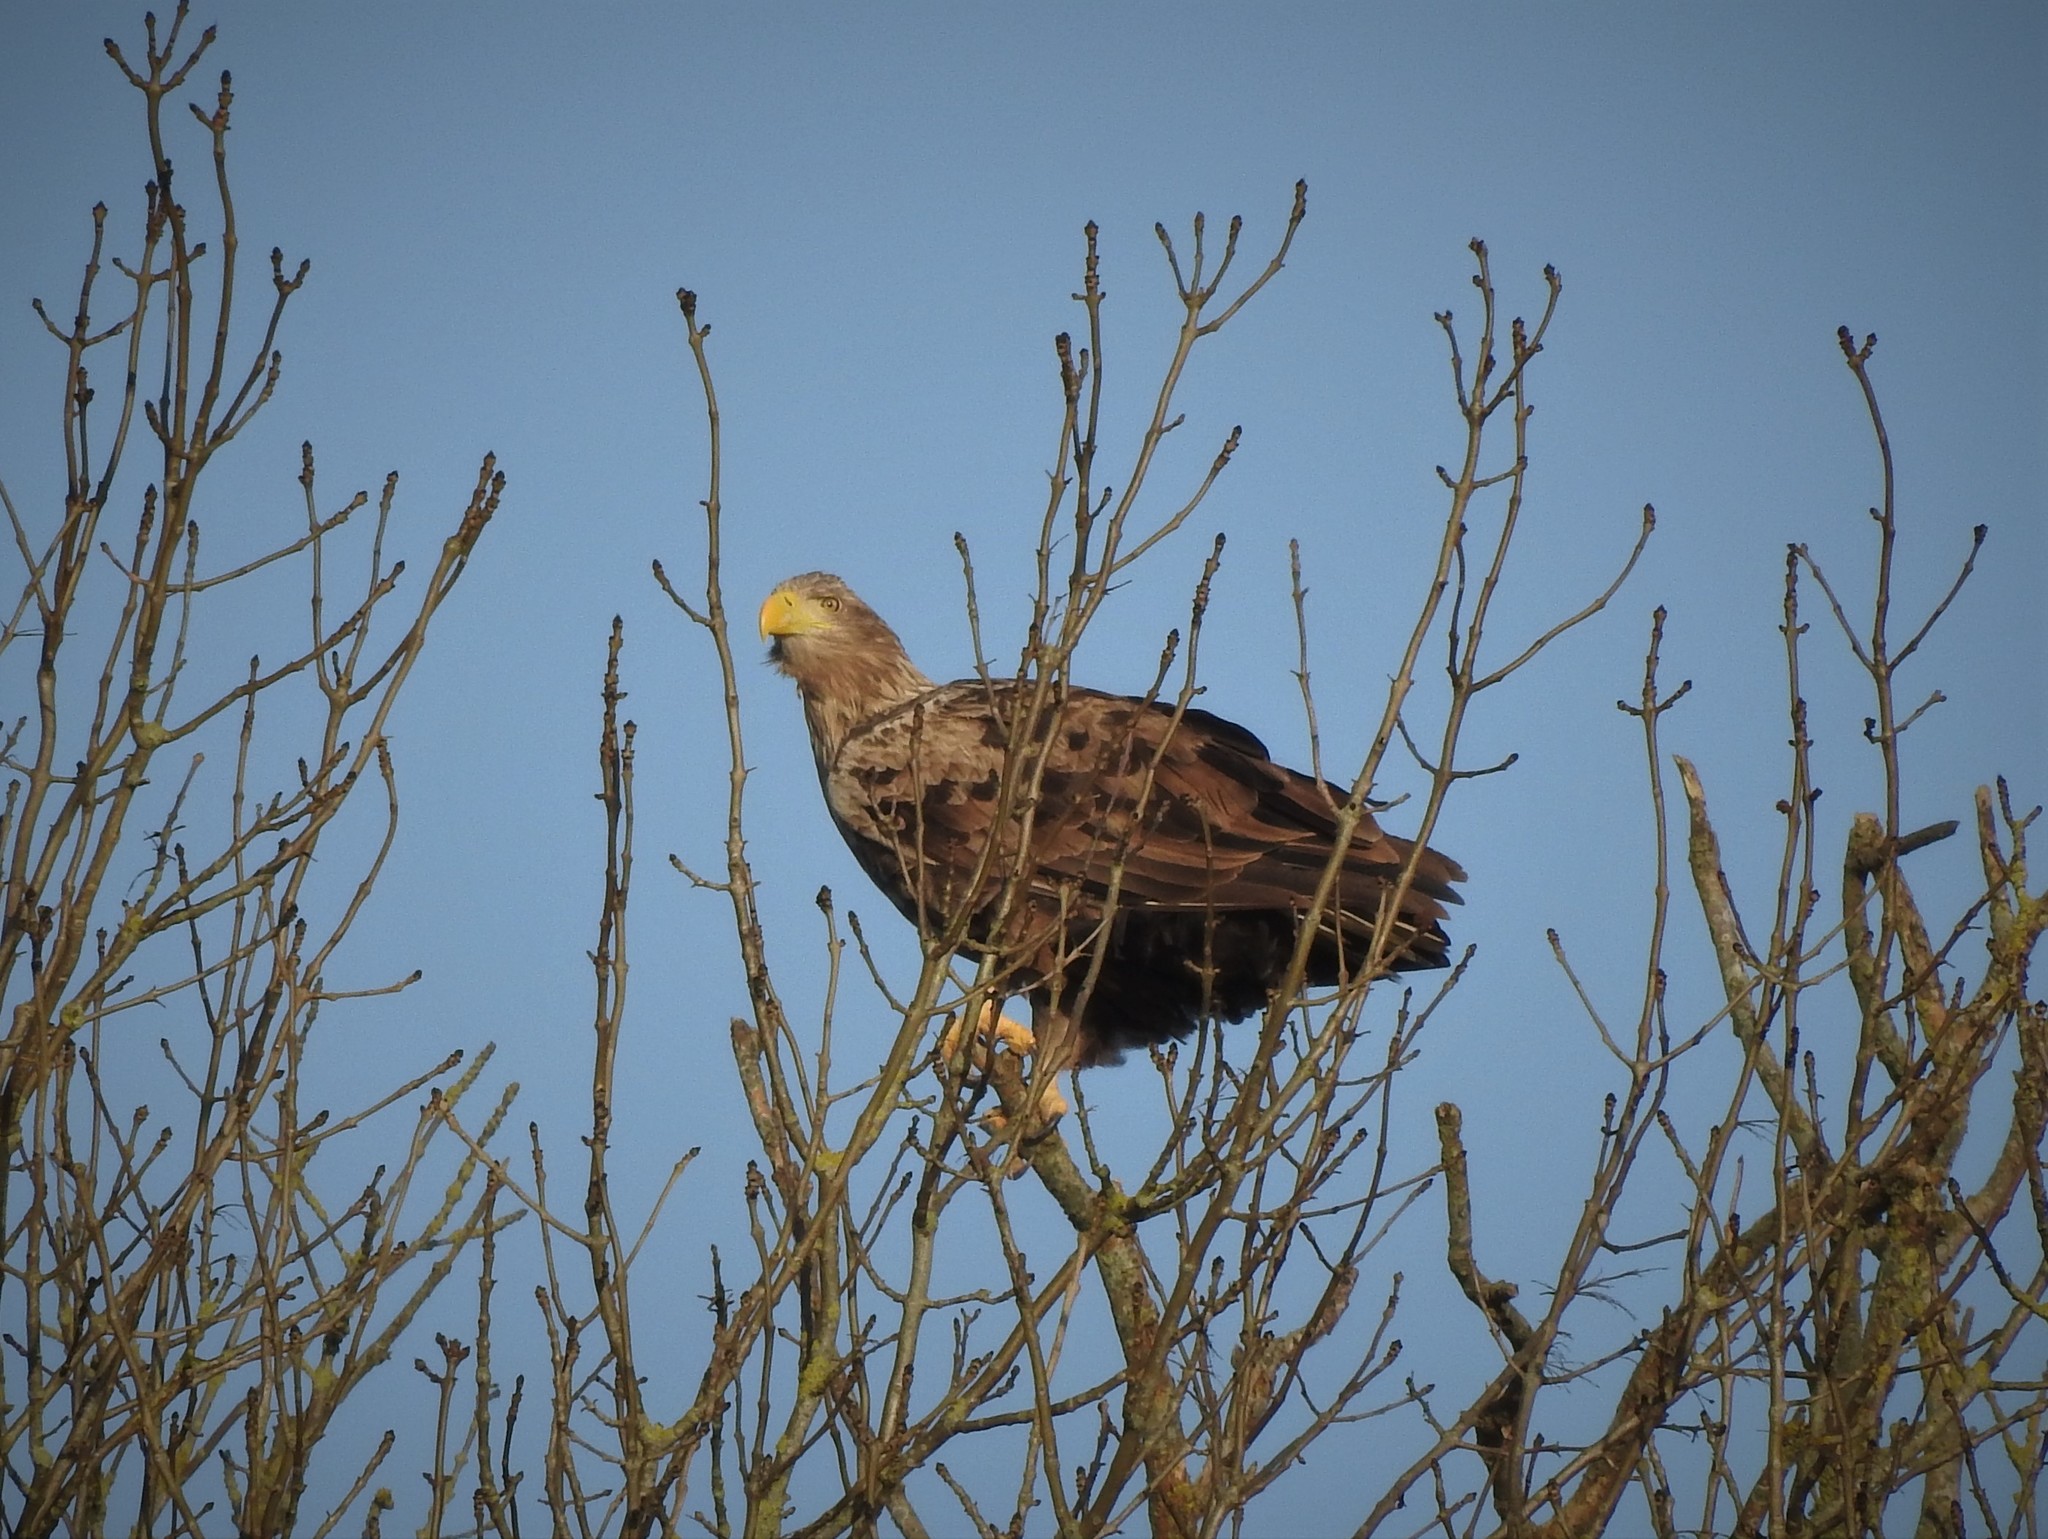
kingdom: Animalia
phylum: Chordata
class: Aves
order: Accipitriformes
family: Accipitridae
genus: Haliaeetus
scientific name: Haliaeetus albicilla
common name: White-tailed eagle
